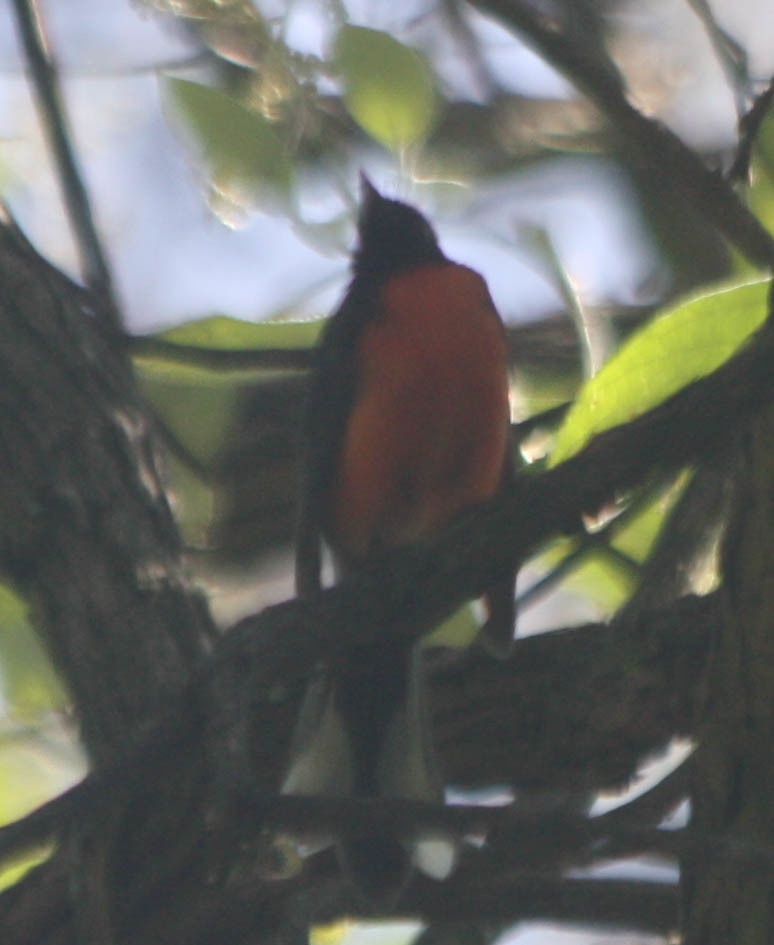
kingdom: Animalia
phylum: Chordata
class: Aves
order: Passeriformes
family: Parulidae
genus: Myioborus
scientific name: Myioborus miniatus
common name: Slate-throated redstart
